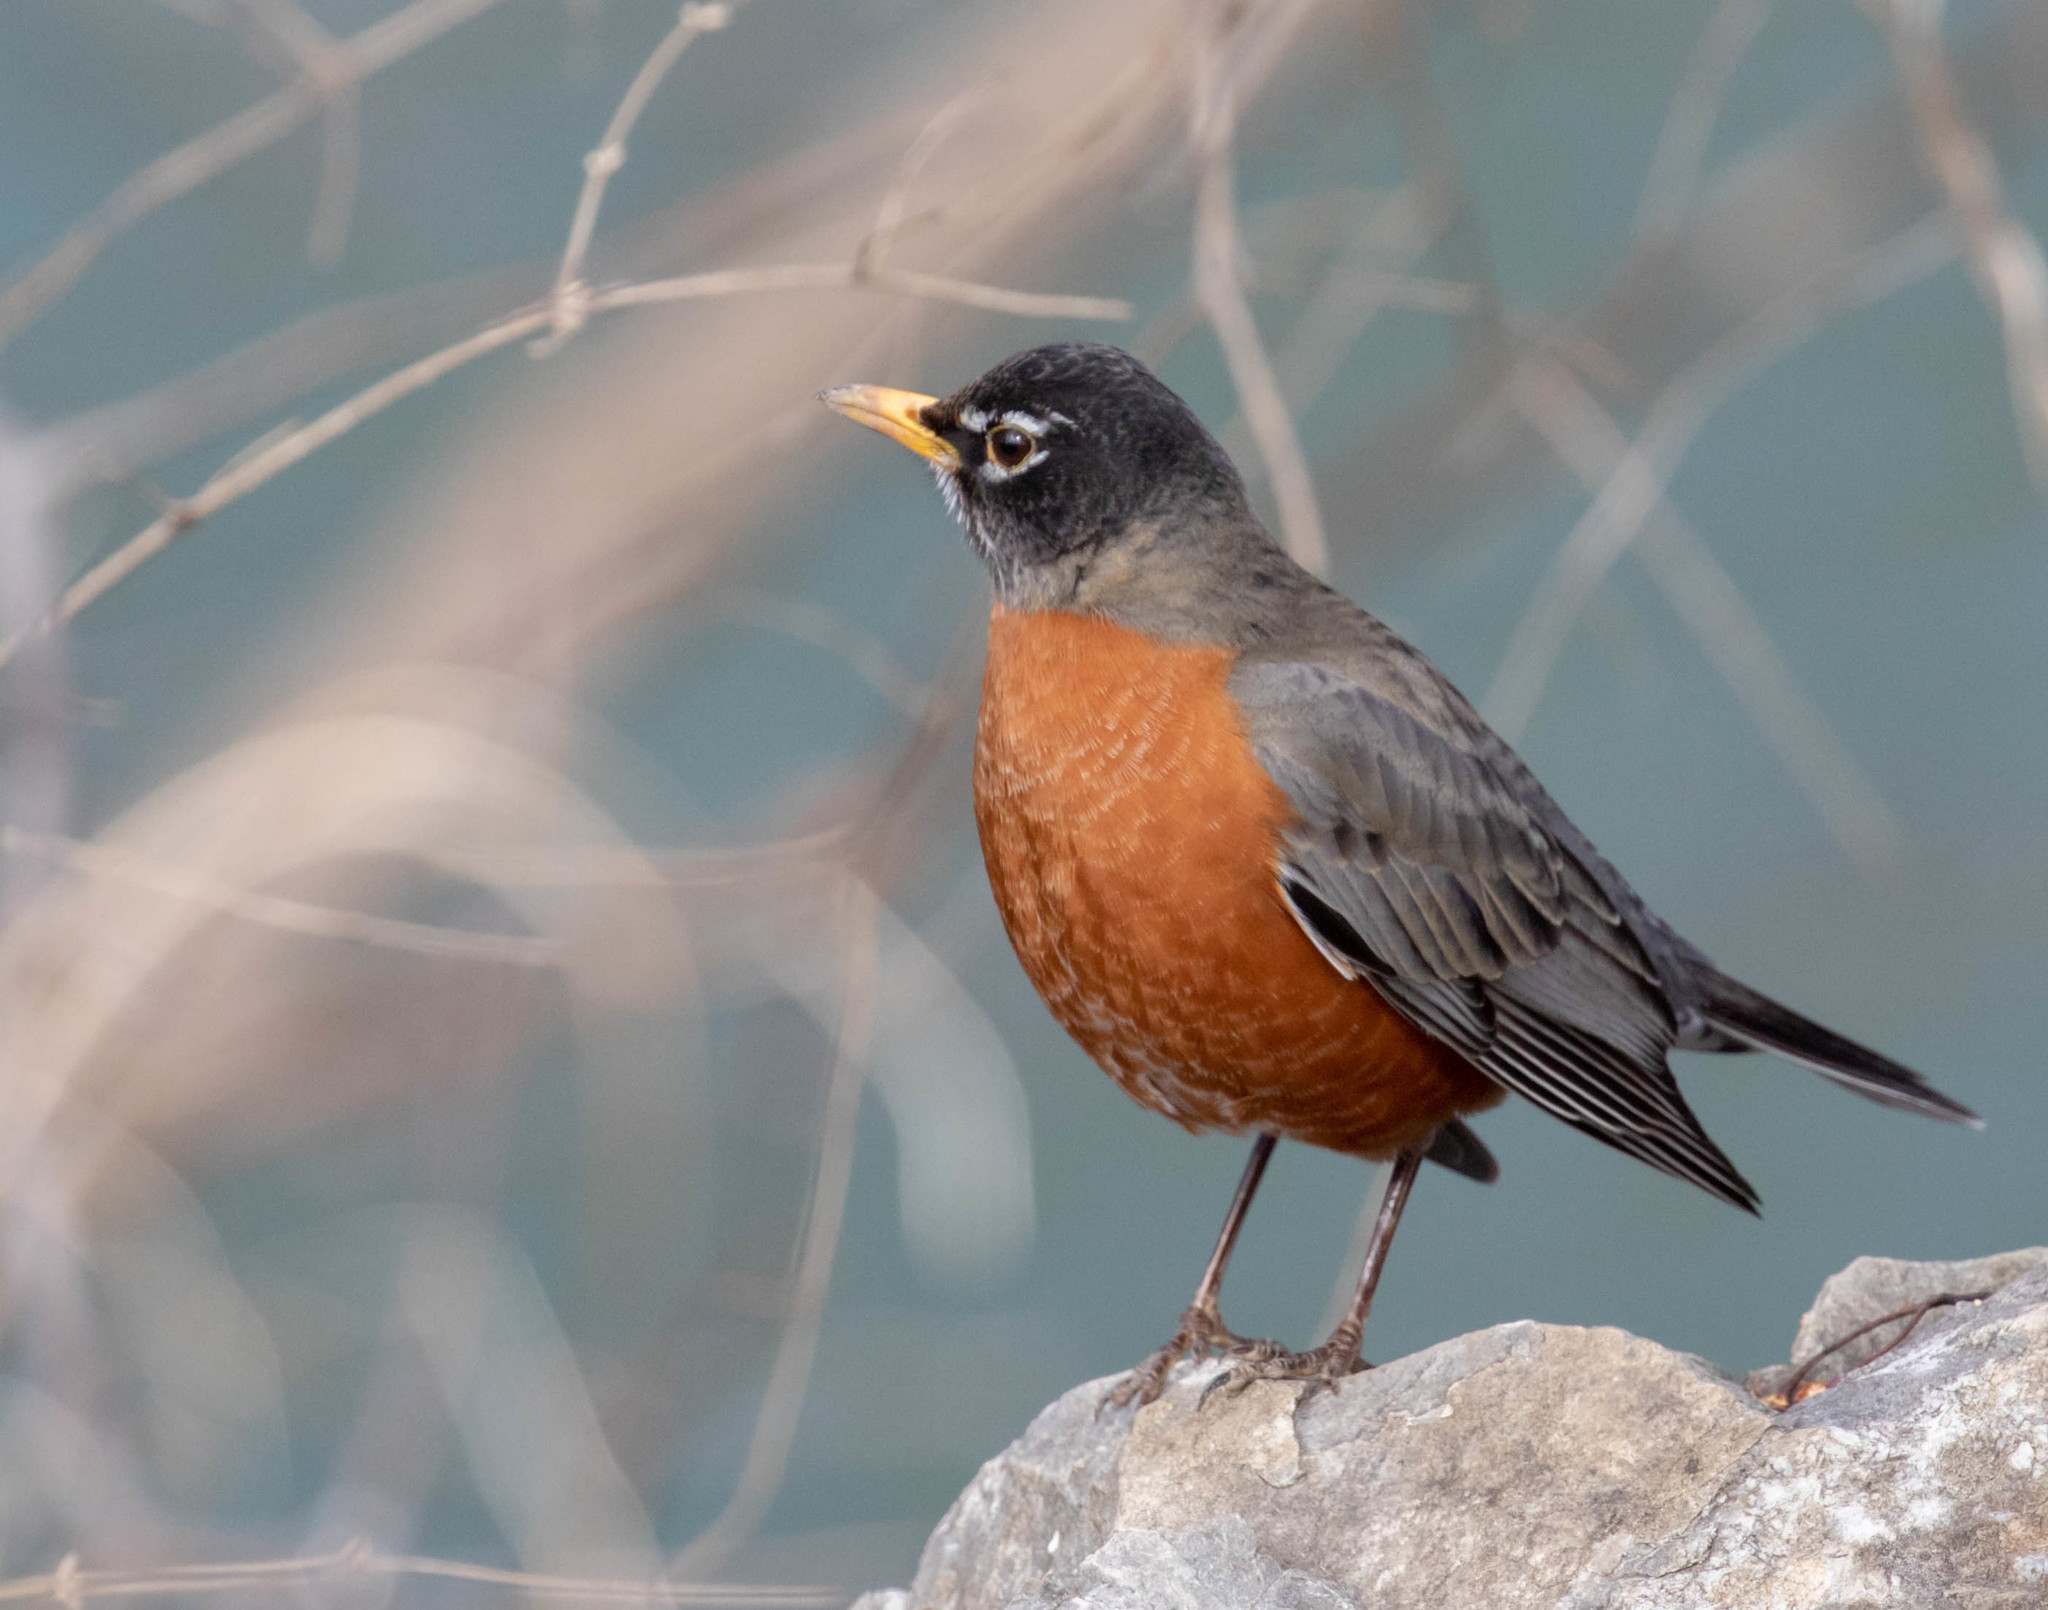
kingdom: Animalia
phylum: Chordata
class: Aves
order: Passeriformes
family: Turdidae
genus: Turdus
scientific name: Turdus migratorius
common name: American robin
